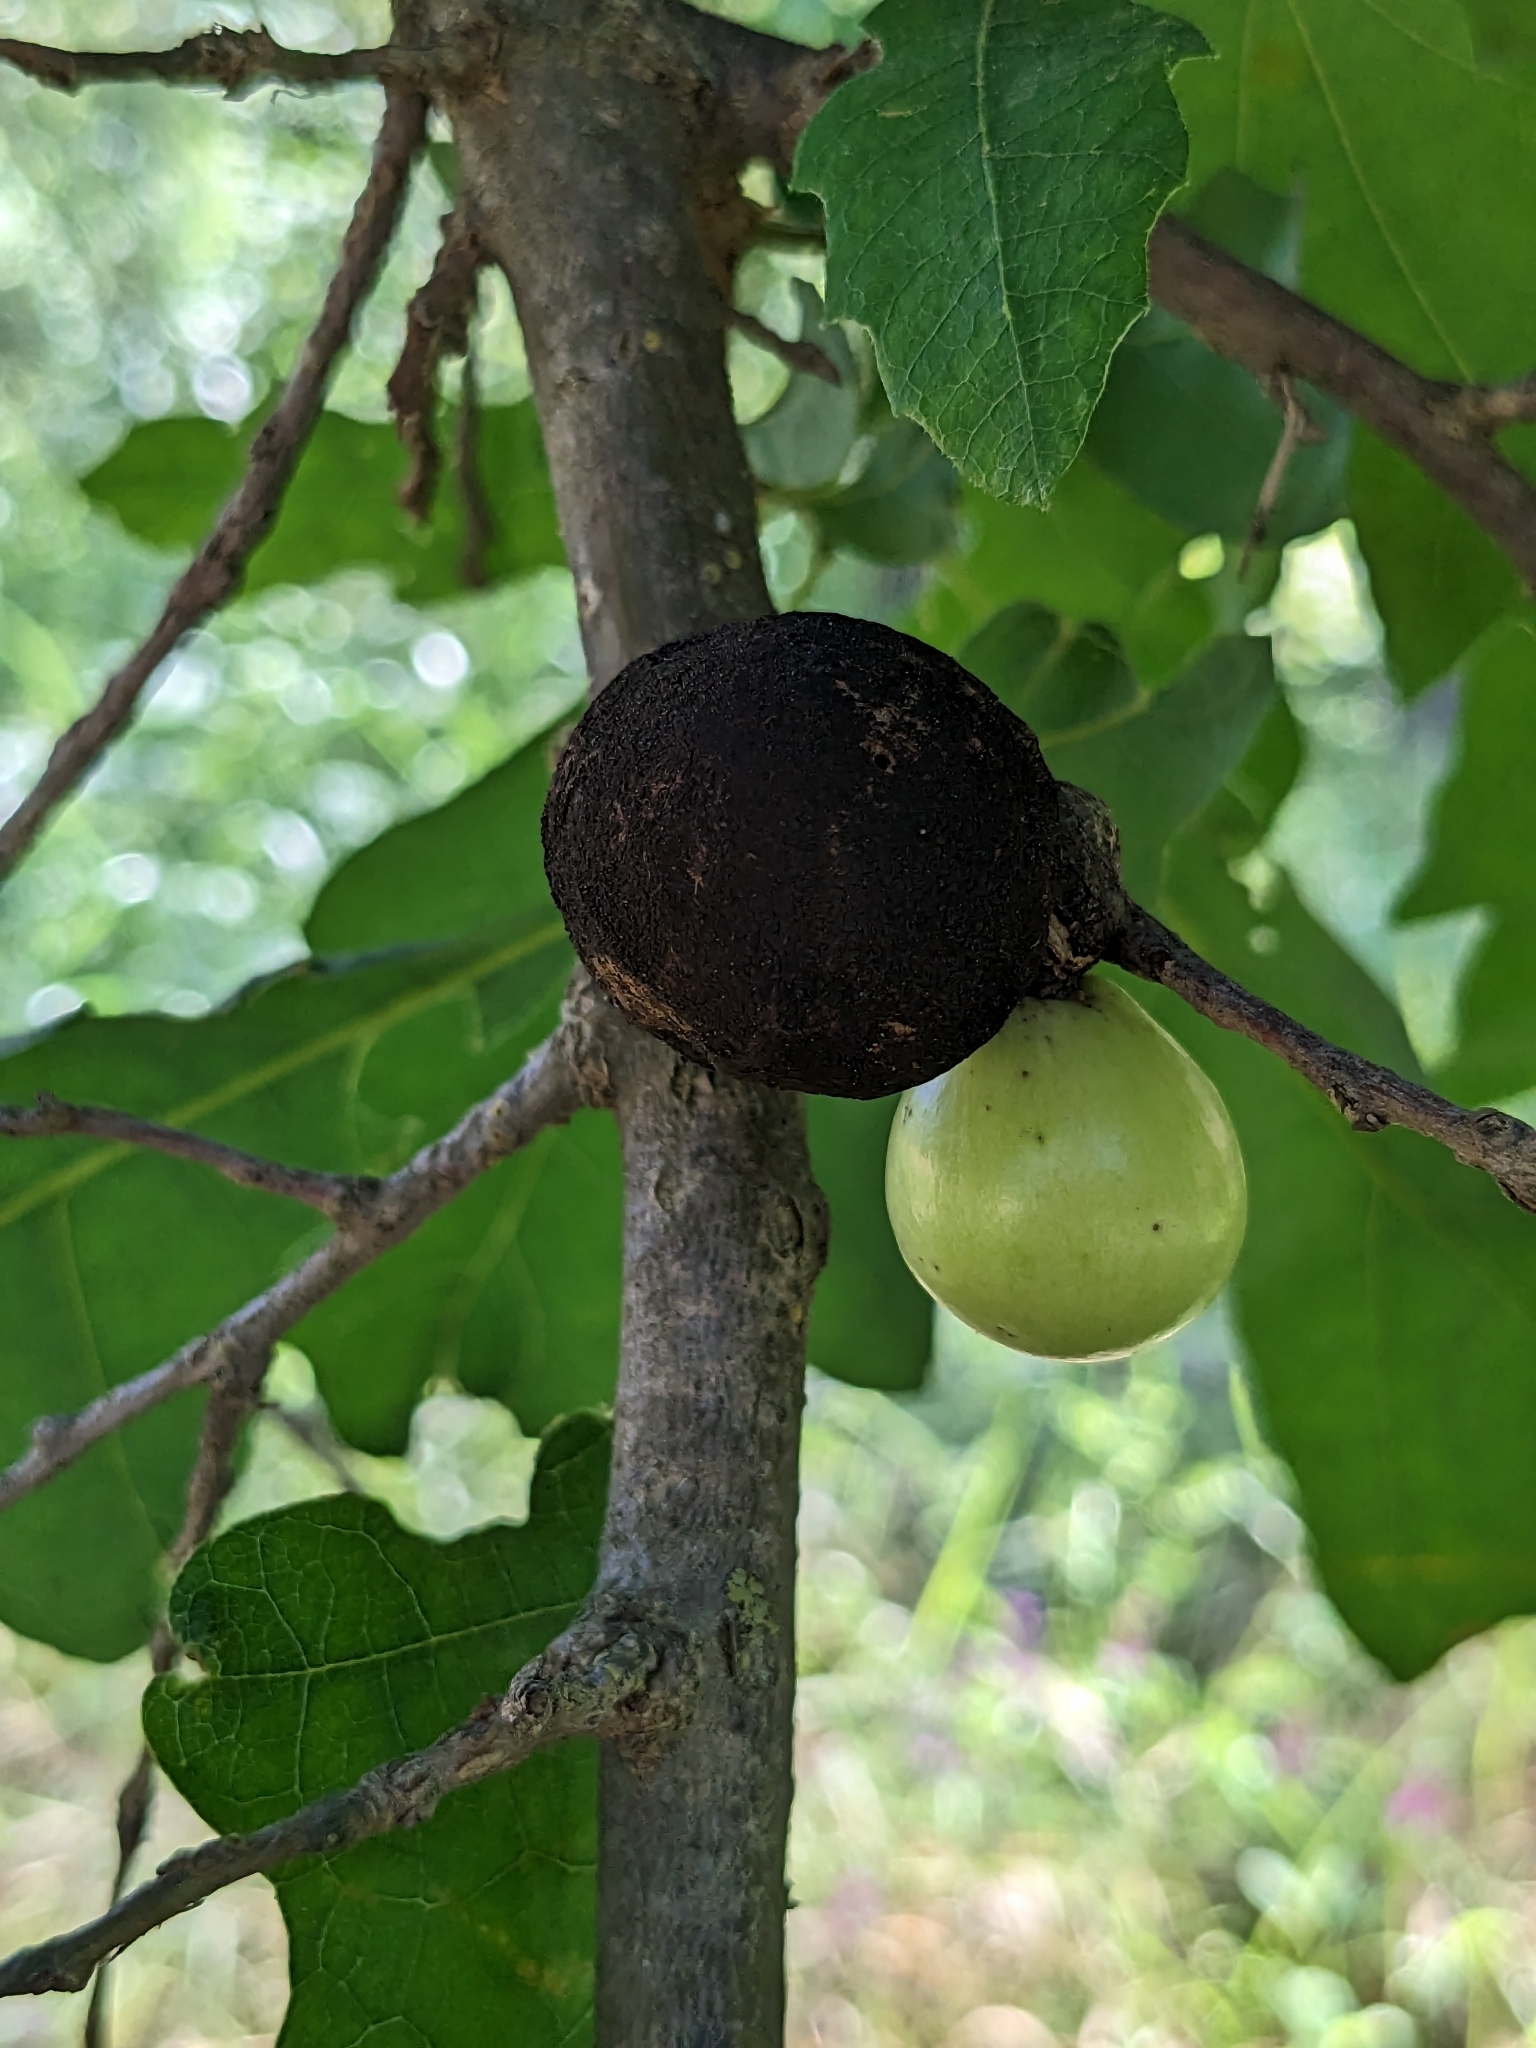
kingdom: Animalia
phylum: Arthropoda
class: Insecta
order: Hymenoptera
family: Cynipidae
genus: Andricus
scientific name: Andricus quercuscalifornicus
